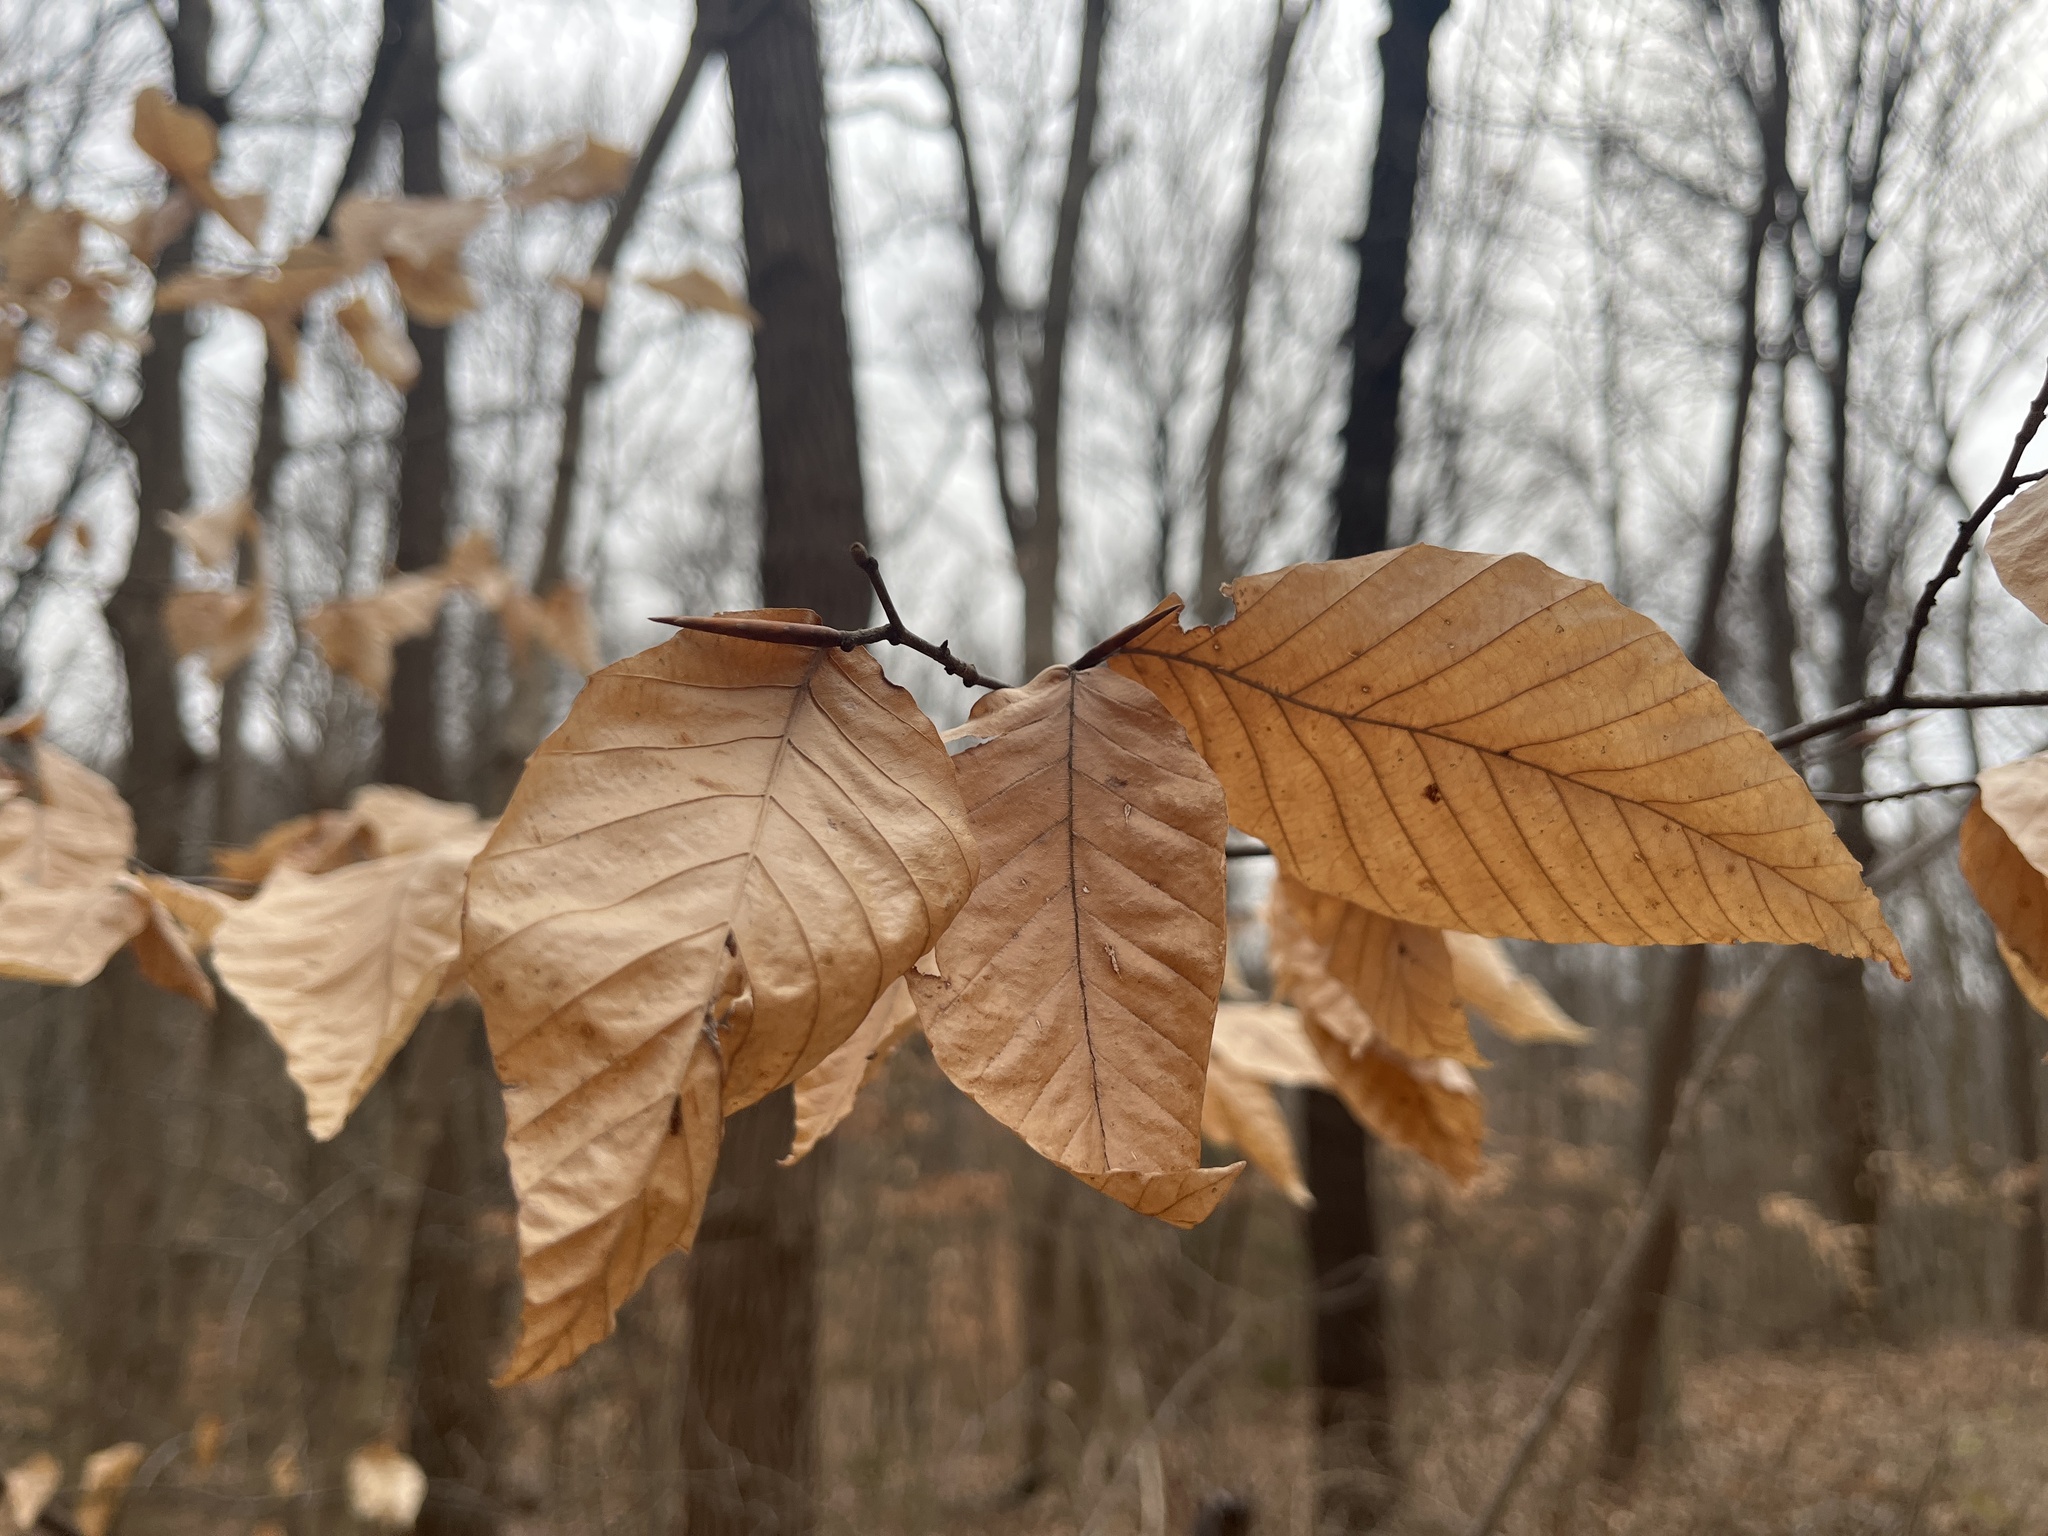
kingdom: Plantae
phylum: Tracheophyta
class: Magnoliopsida
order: Fagales
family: Fagaceae
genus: Fagus
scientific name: Fagus grandifolia
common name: American beech
